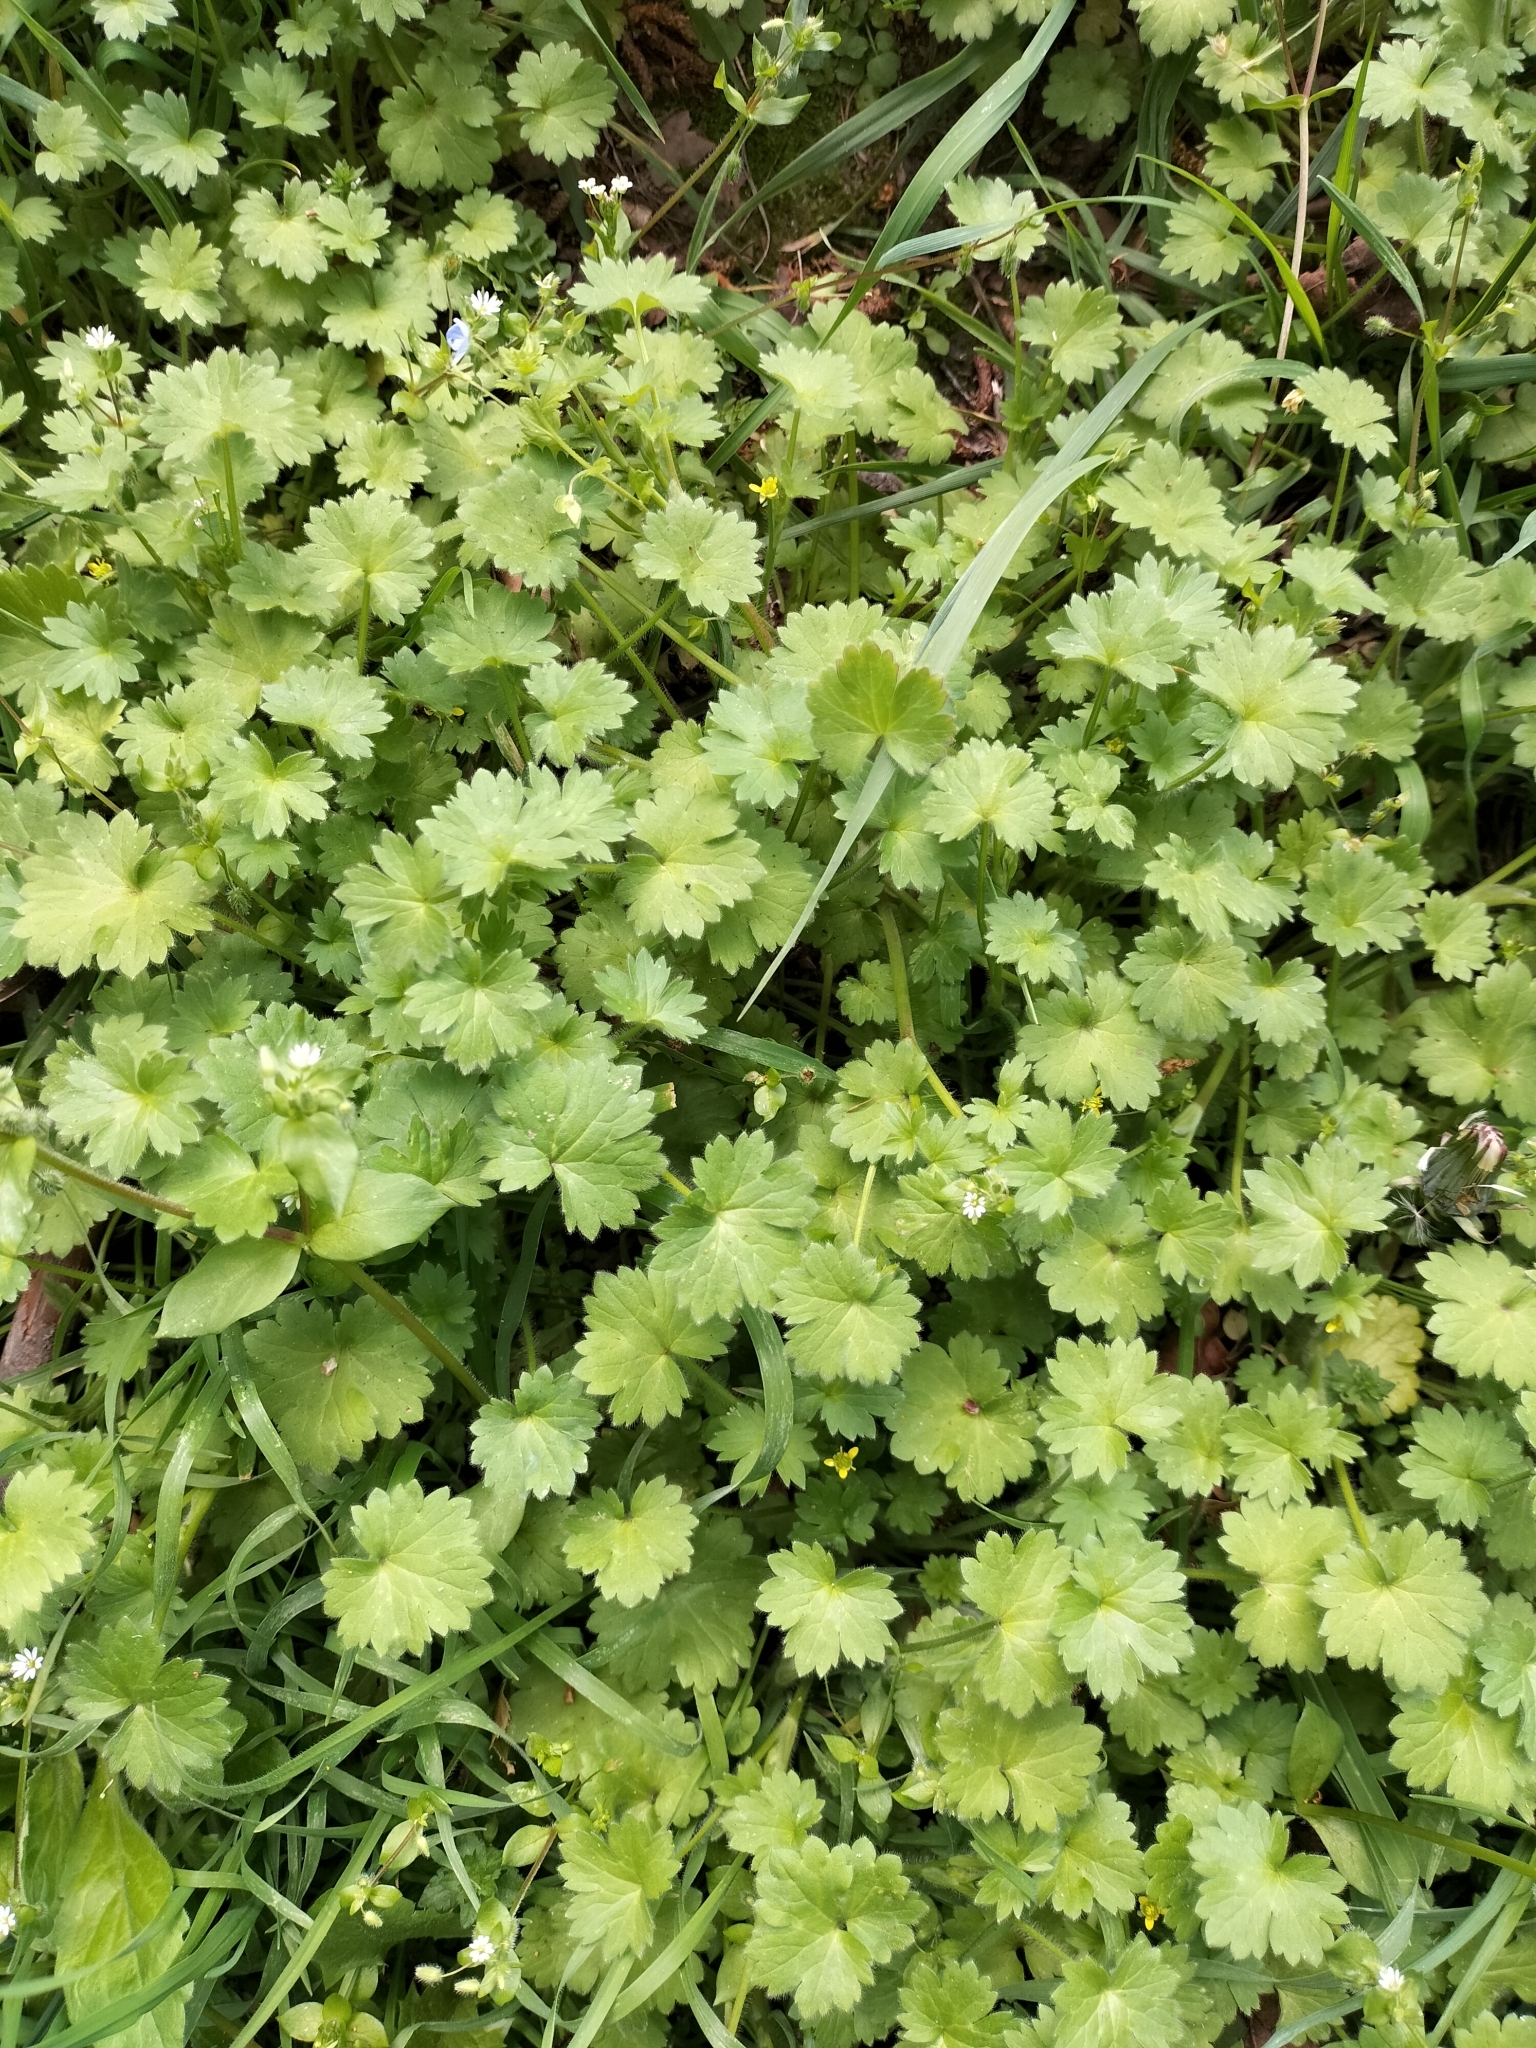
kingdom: Plantae
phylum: Tracheophyta
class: Magnoliopsida
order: Ranunculales
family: Ranunculaceae
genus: Ranunculus
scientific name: Ranunculus parviflorus
